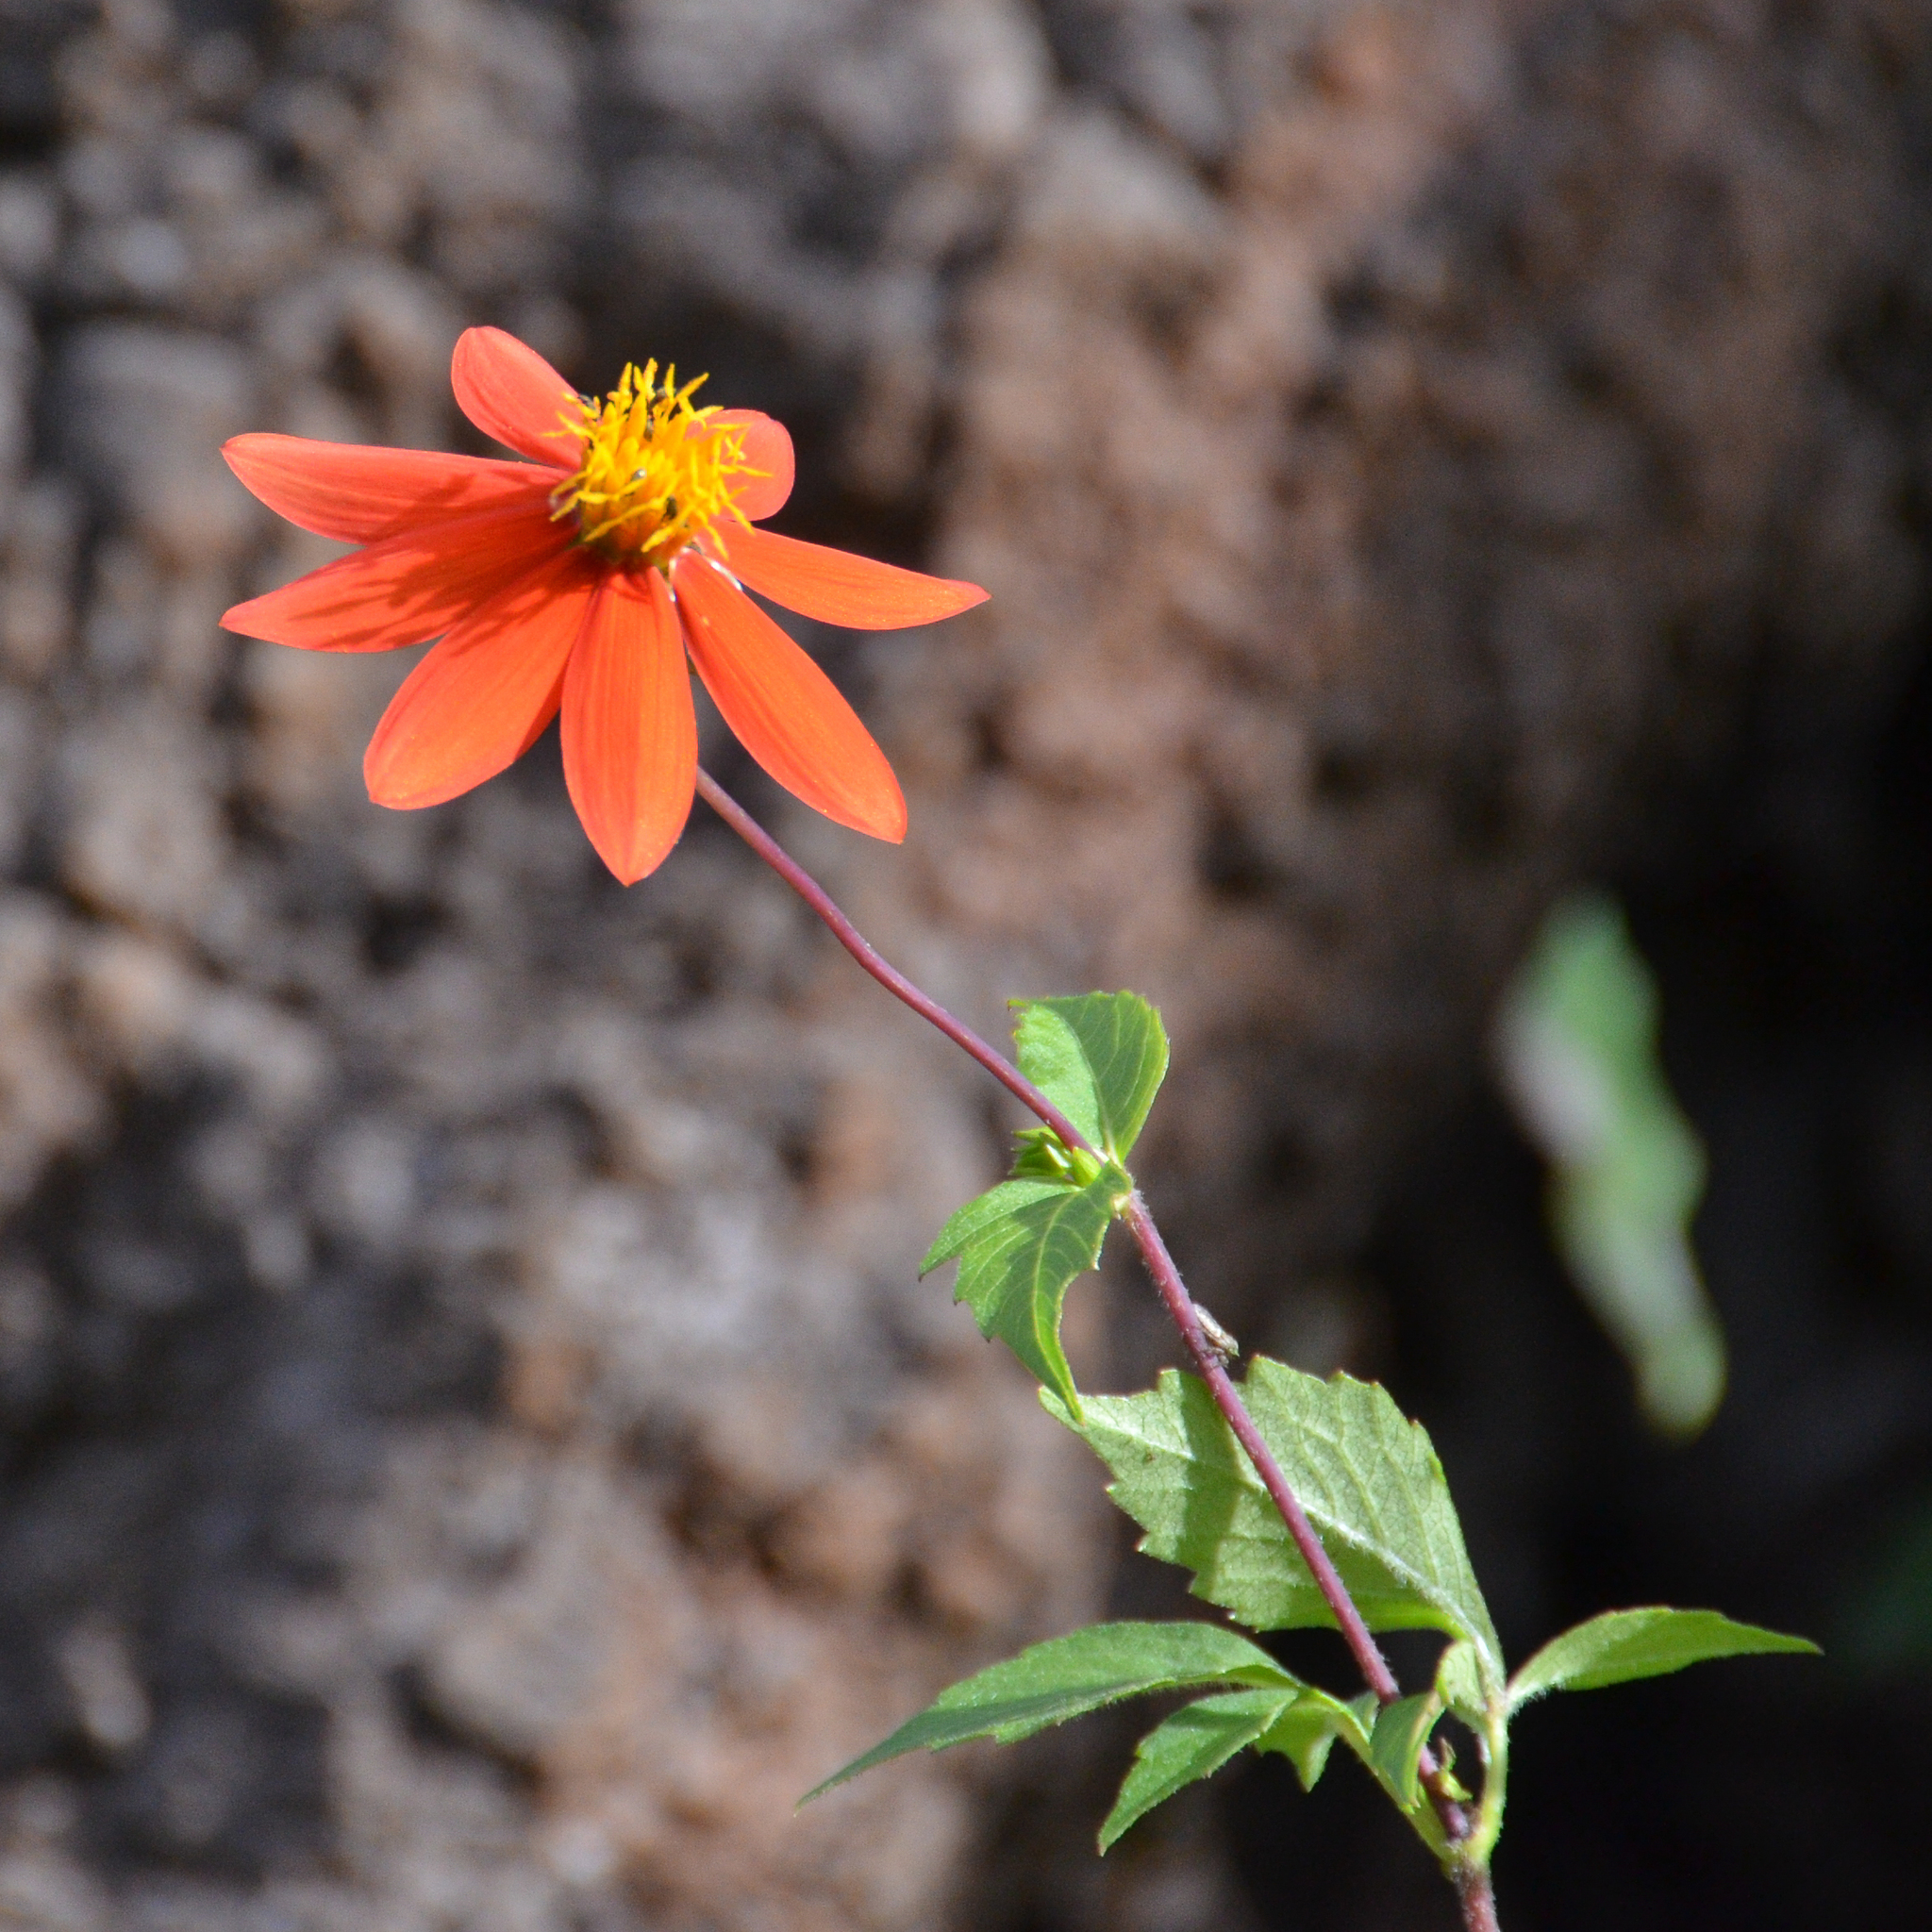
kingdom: Plantae
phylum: Tracheophyta
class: Magnoliopsida
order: Asterales
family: Asteraceae
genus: Dahlia
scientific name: Dahlia coccinea
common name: Red dahlia
